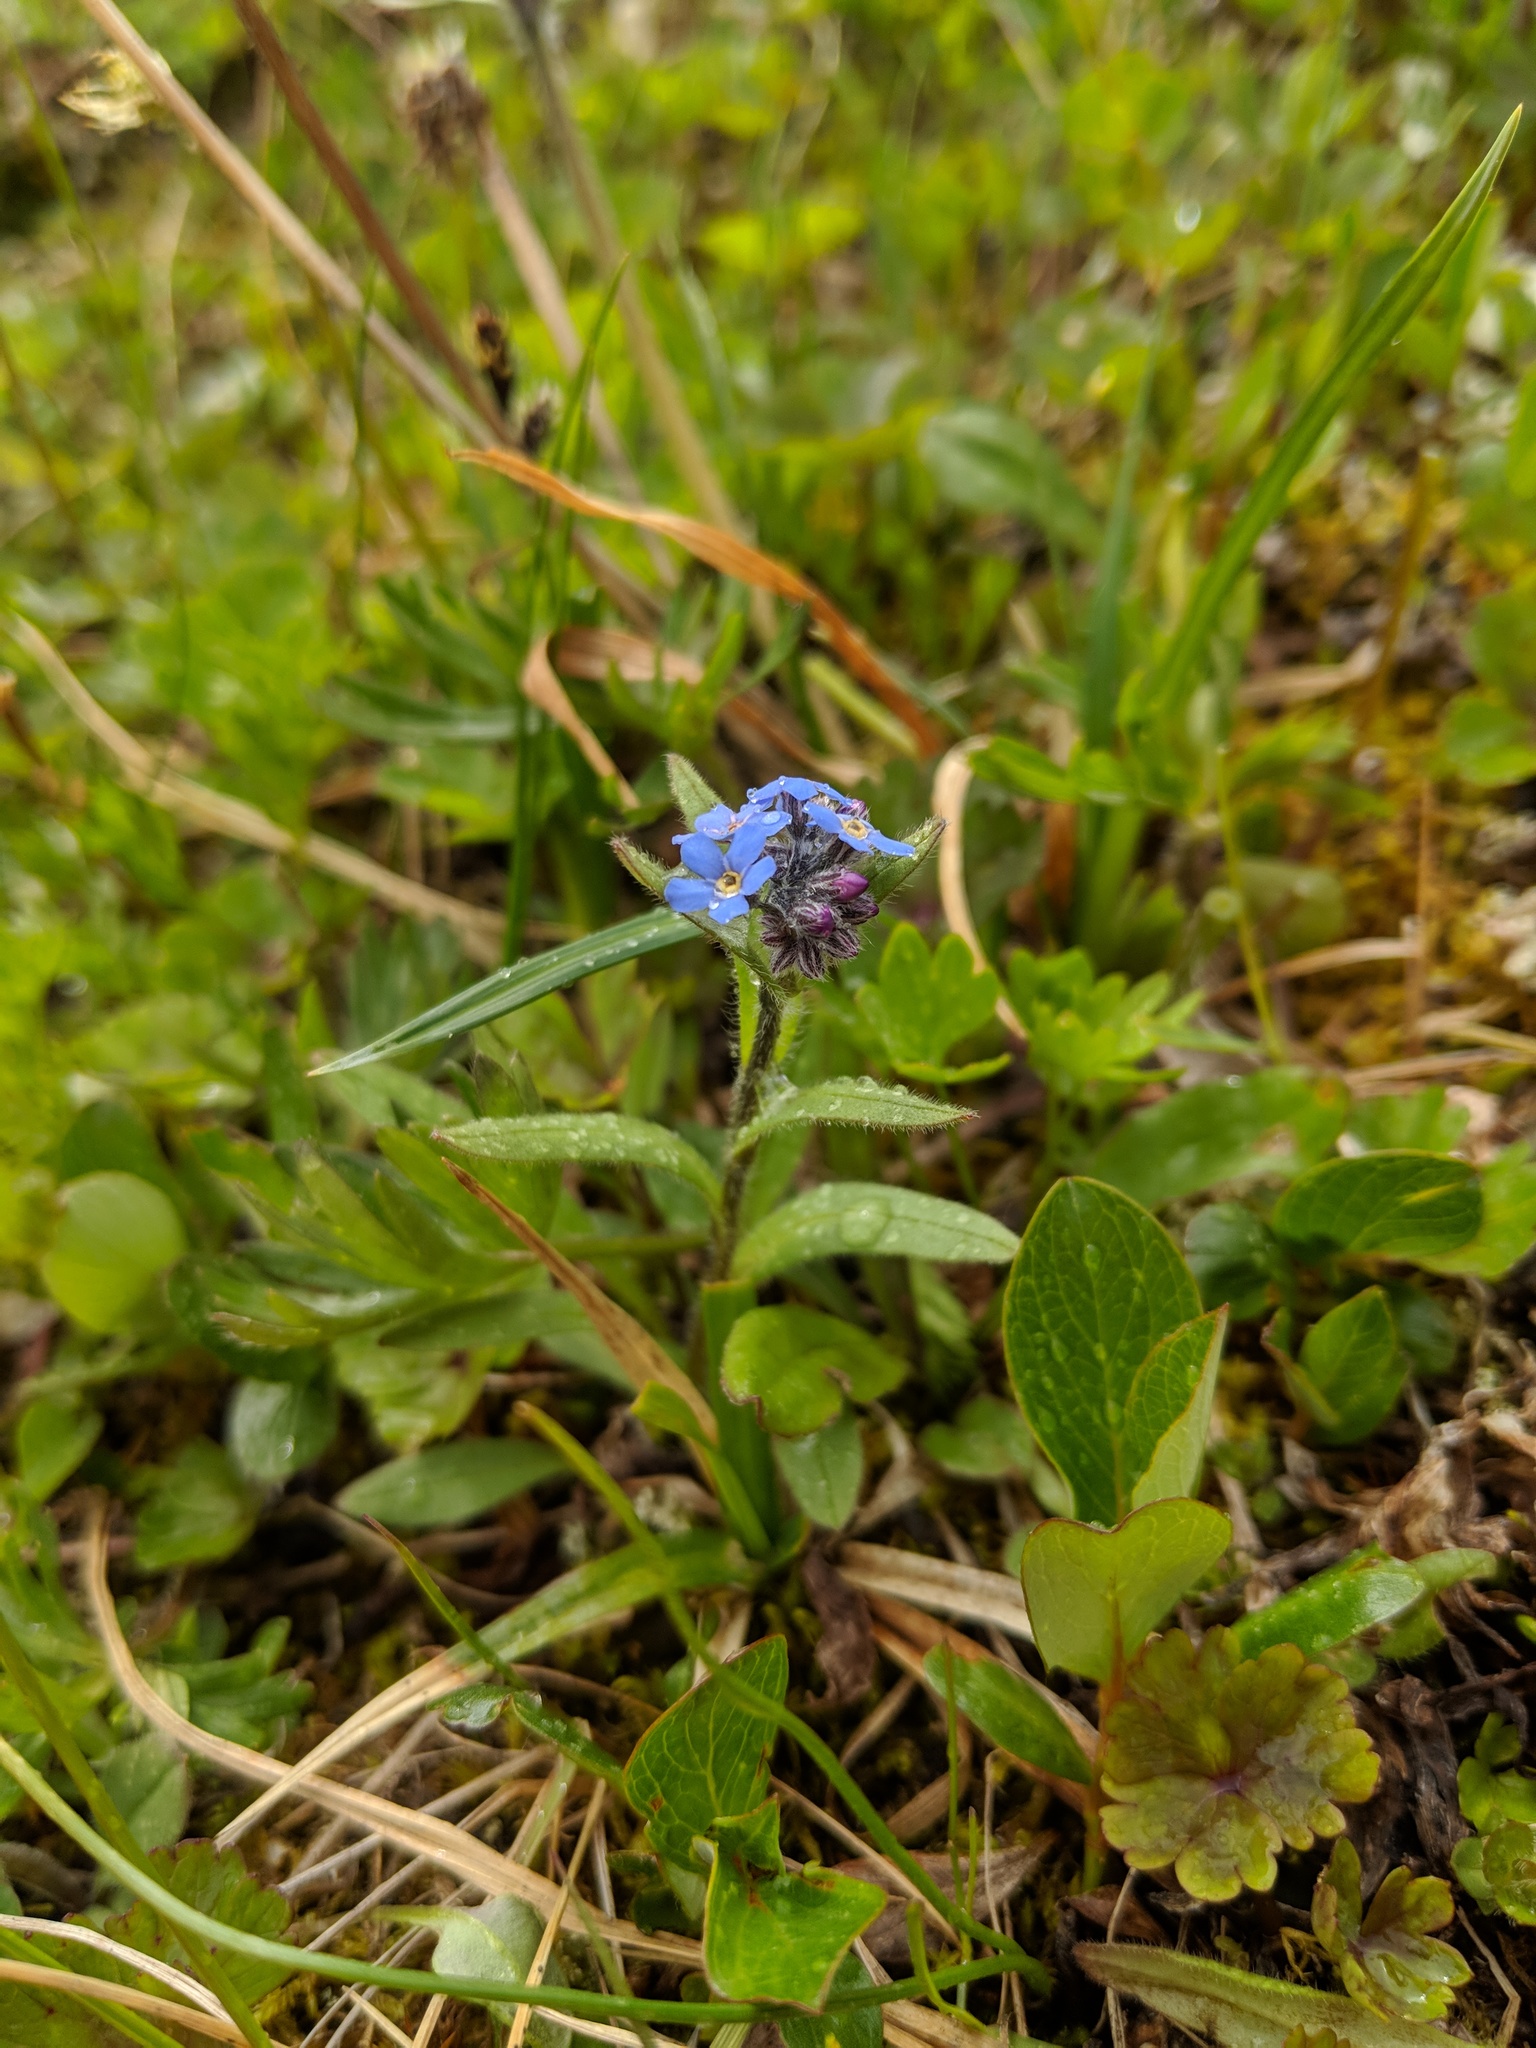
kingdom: Plantae
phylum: Tracheophyta
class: Magnoliopsida
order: Boraginales
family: Boraginaceae
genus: Myosotis
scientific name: Myosotis asiatica
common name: Asian forget-me-not
